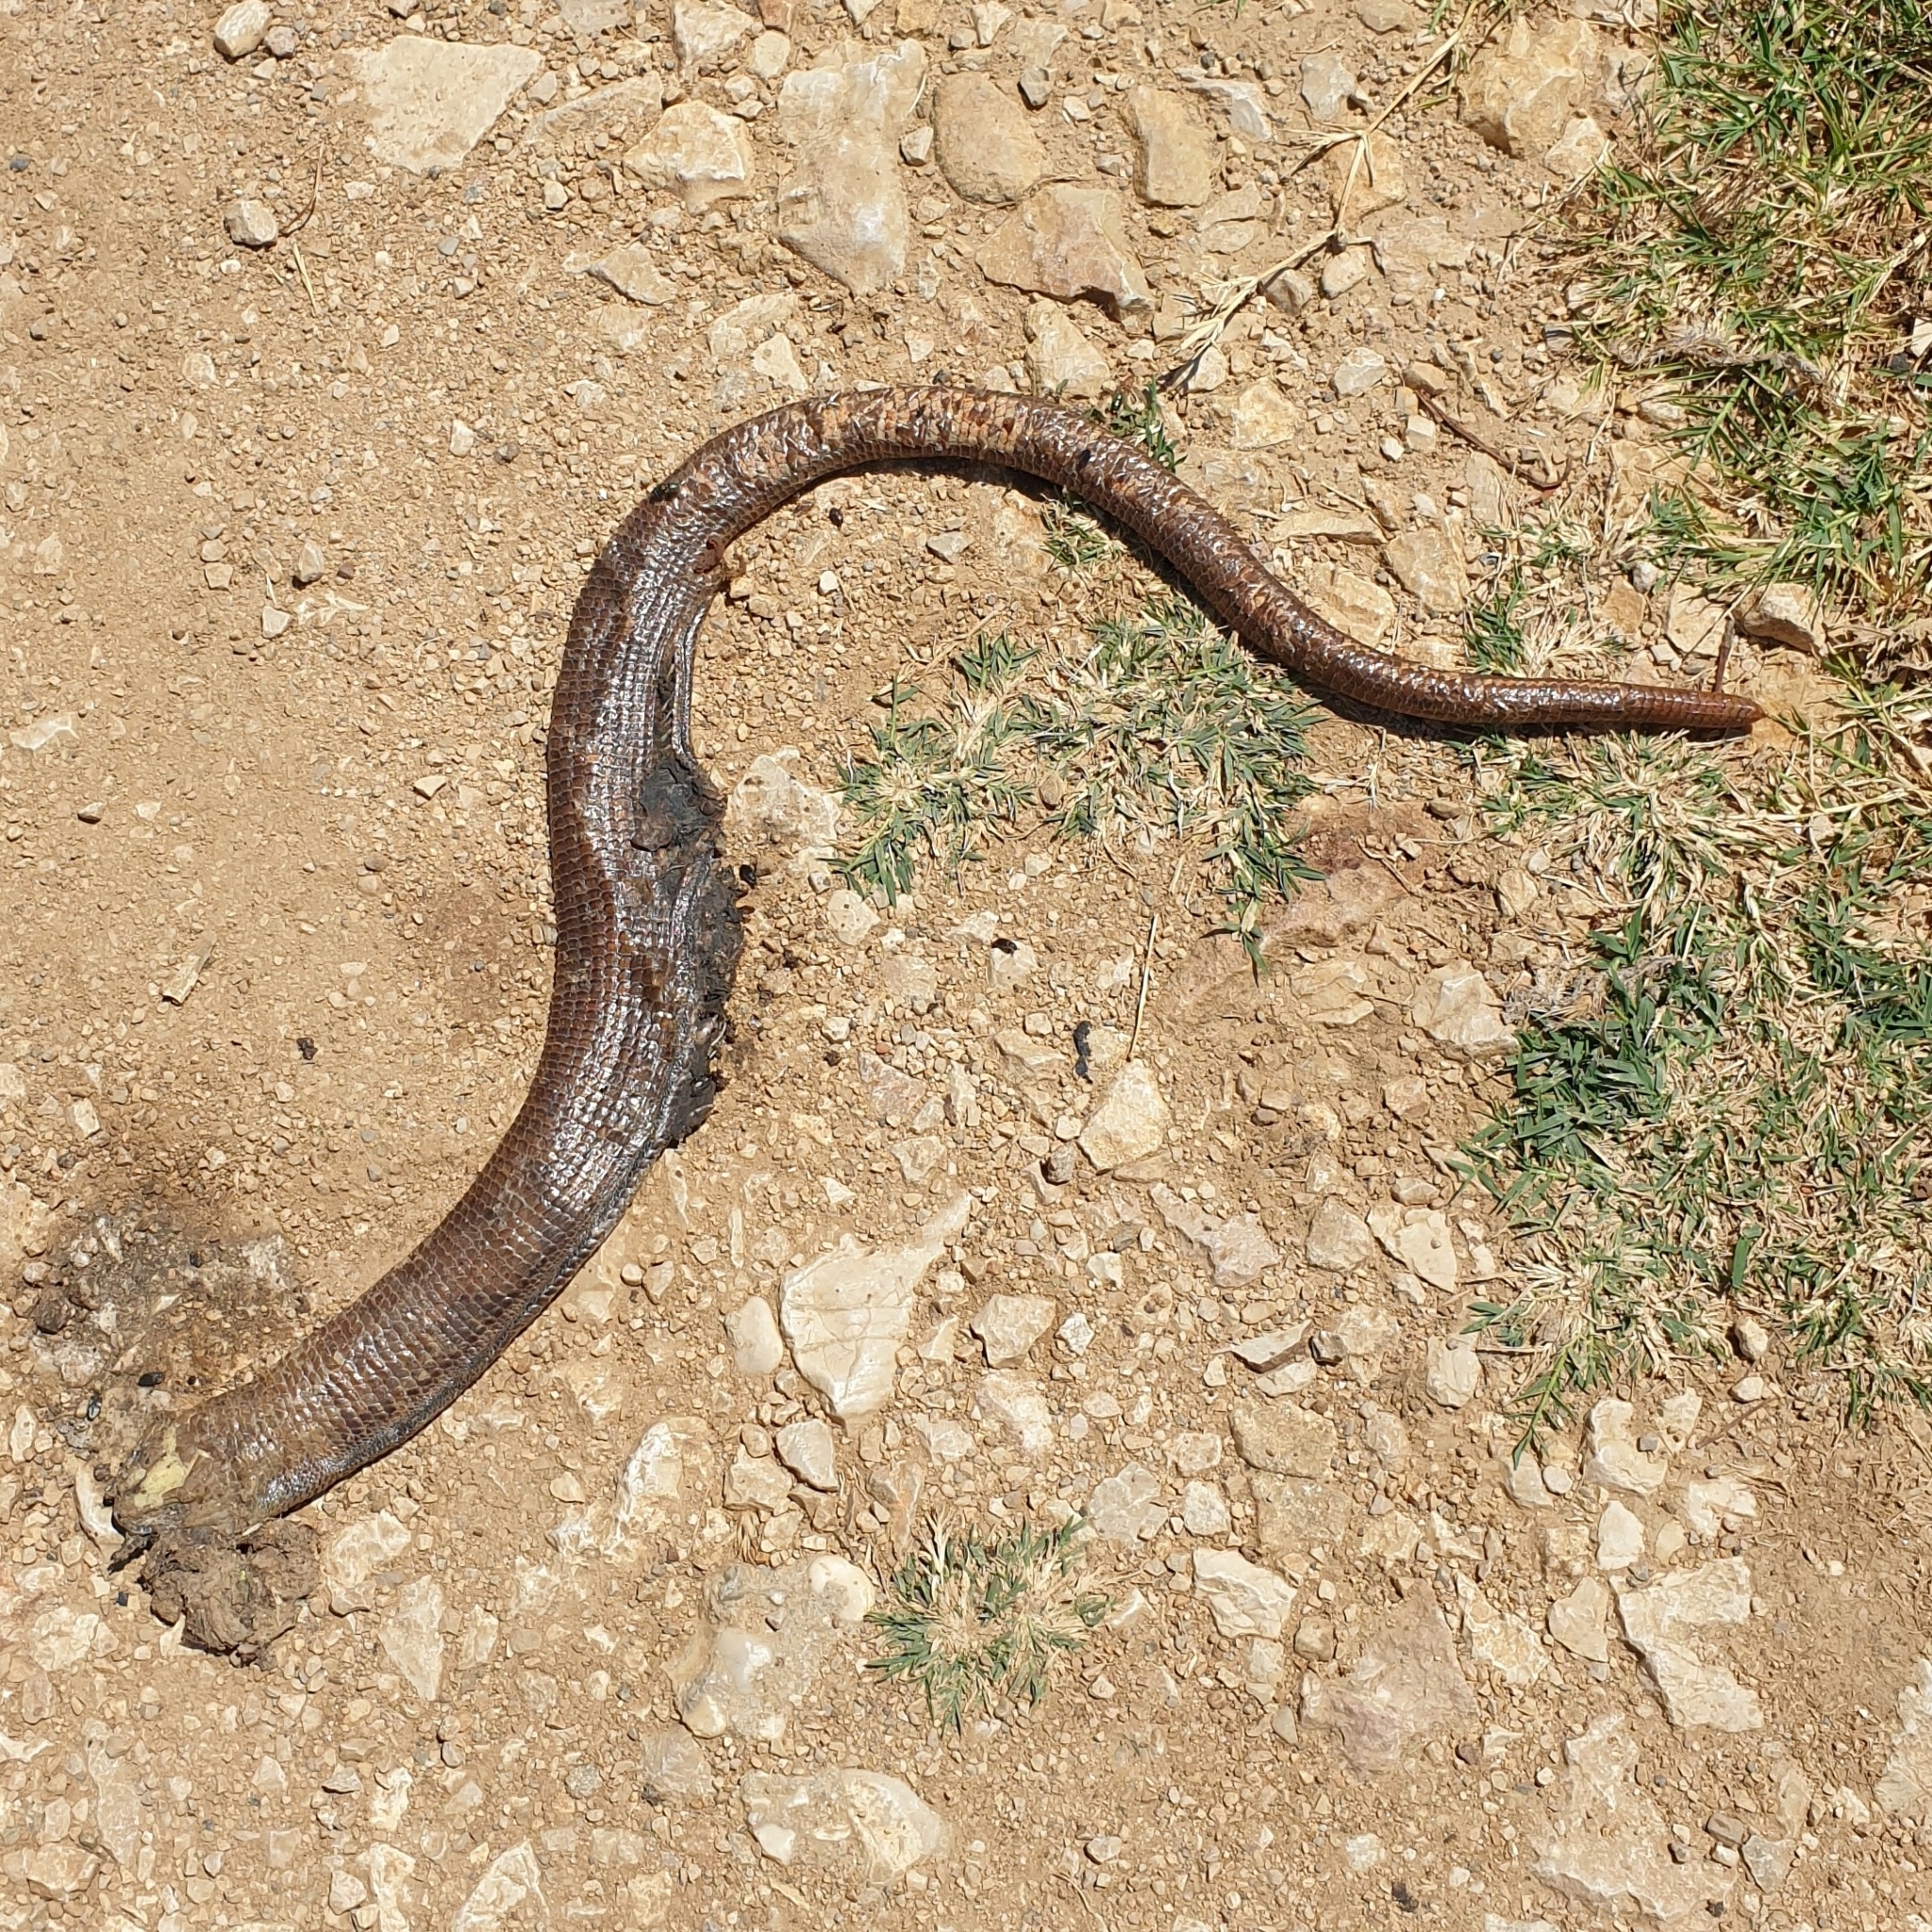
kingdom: Animalia
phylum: Chordata
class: Squamata
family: Anguidae
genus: Pseudopus
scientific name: Pseudopus apodus
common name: European glass lizard
